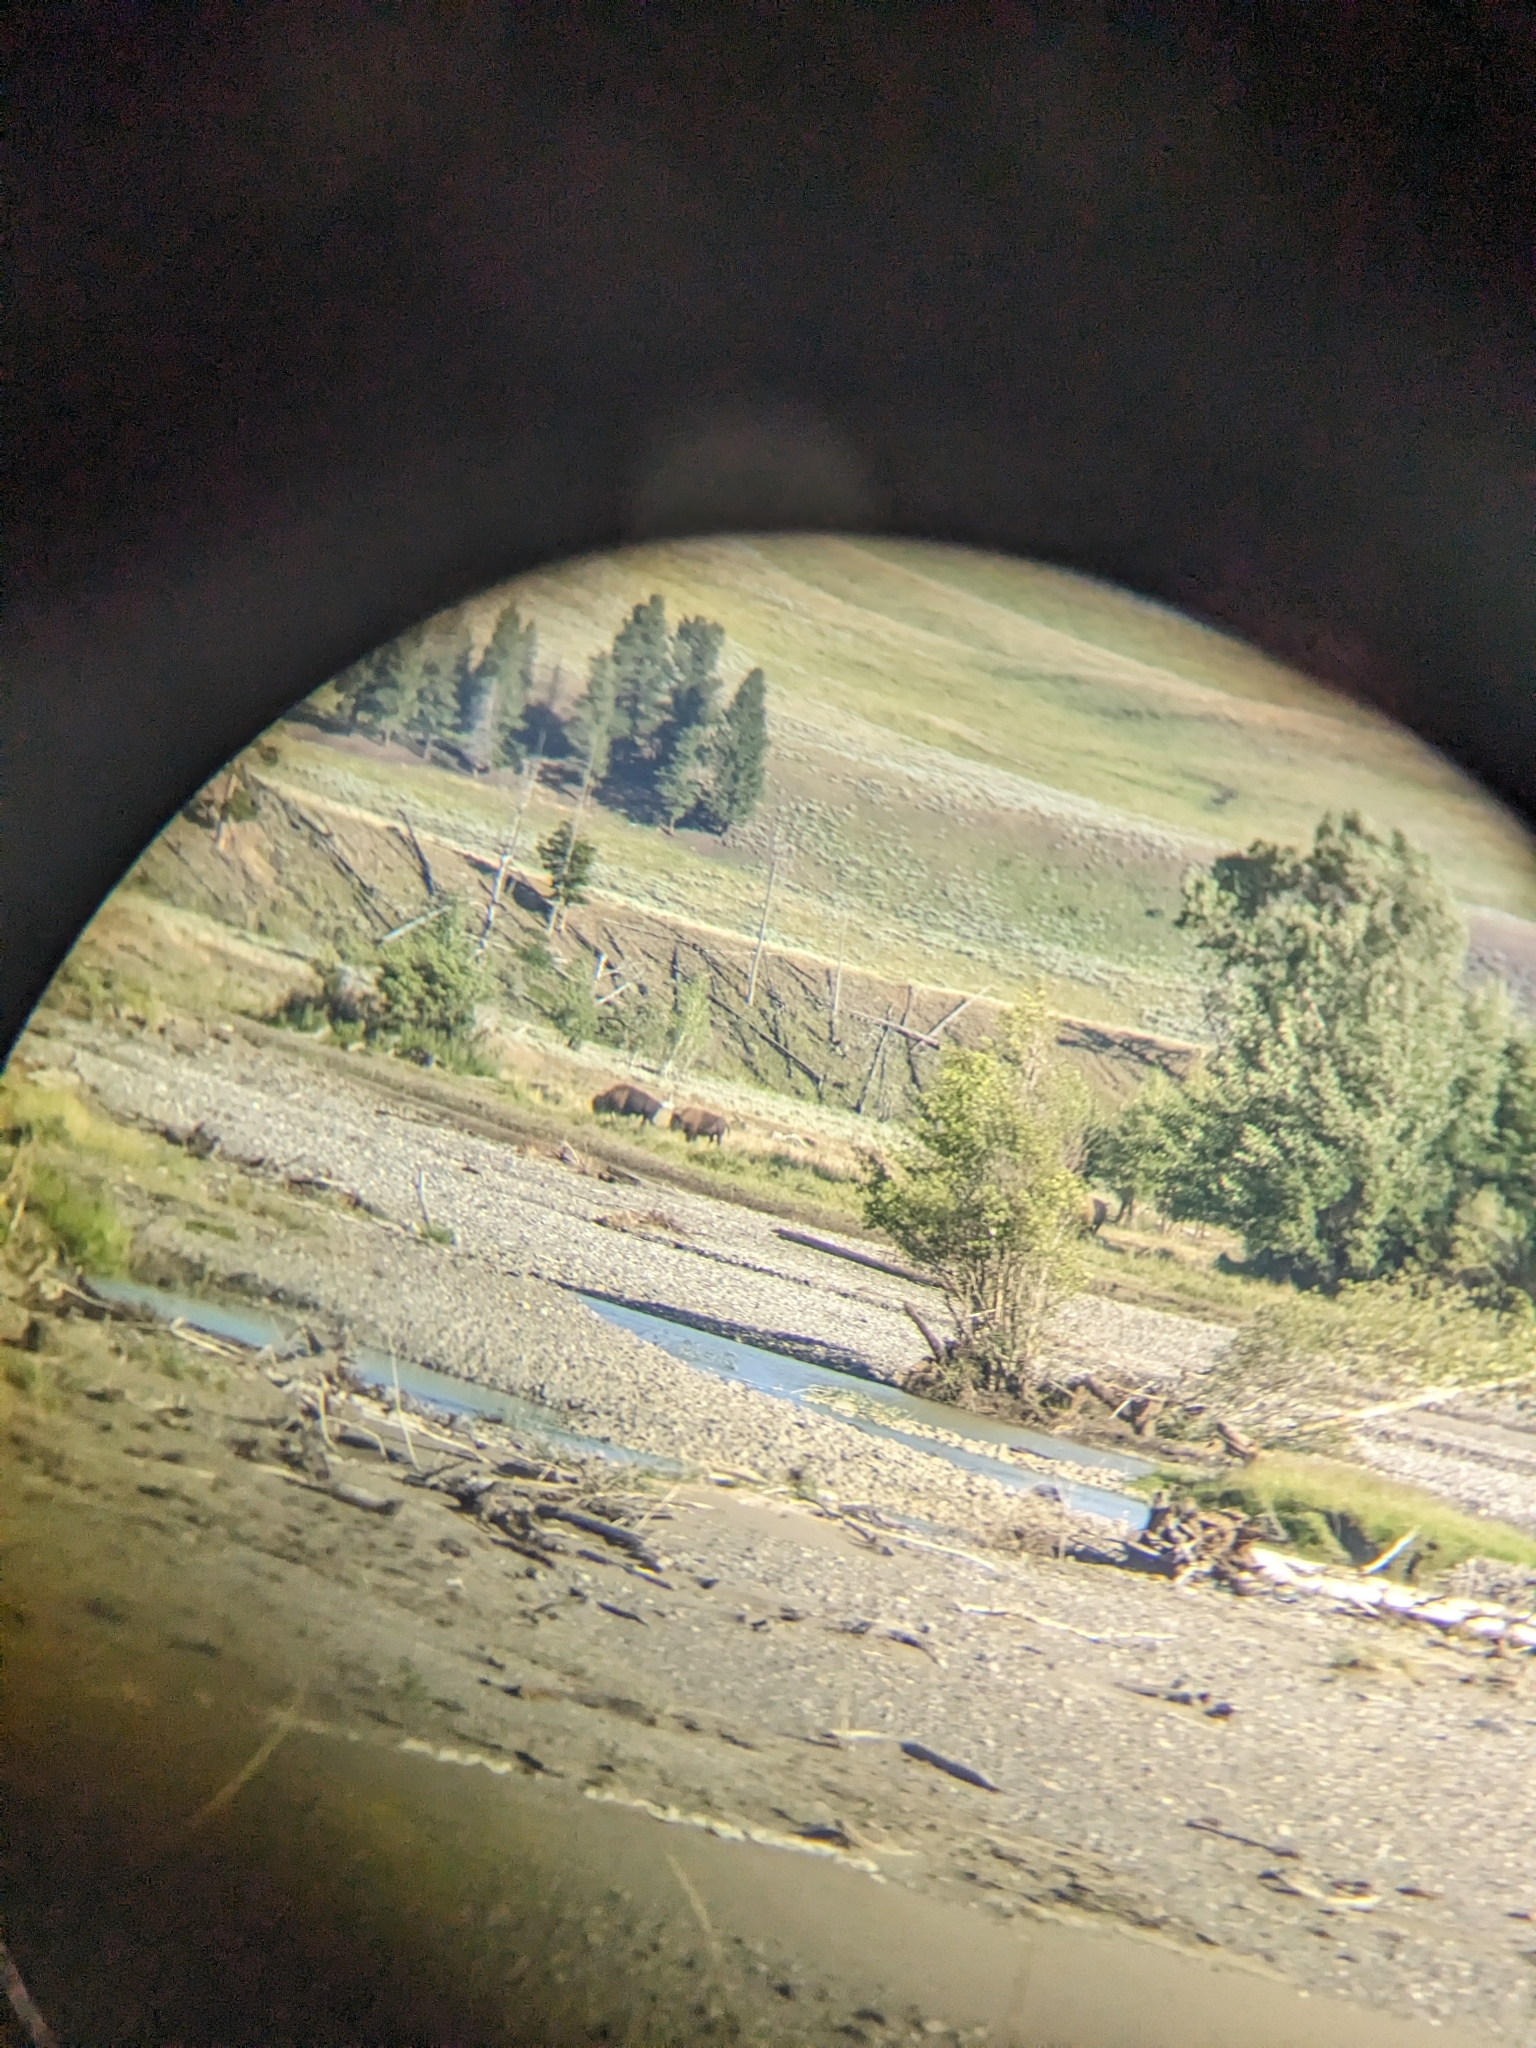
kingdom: Animalia
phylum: Chordata
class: Mammalia
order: Artiodactyla
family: Bovidae
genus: Bison
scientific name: Bison bison
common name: American bison
